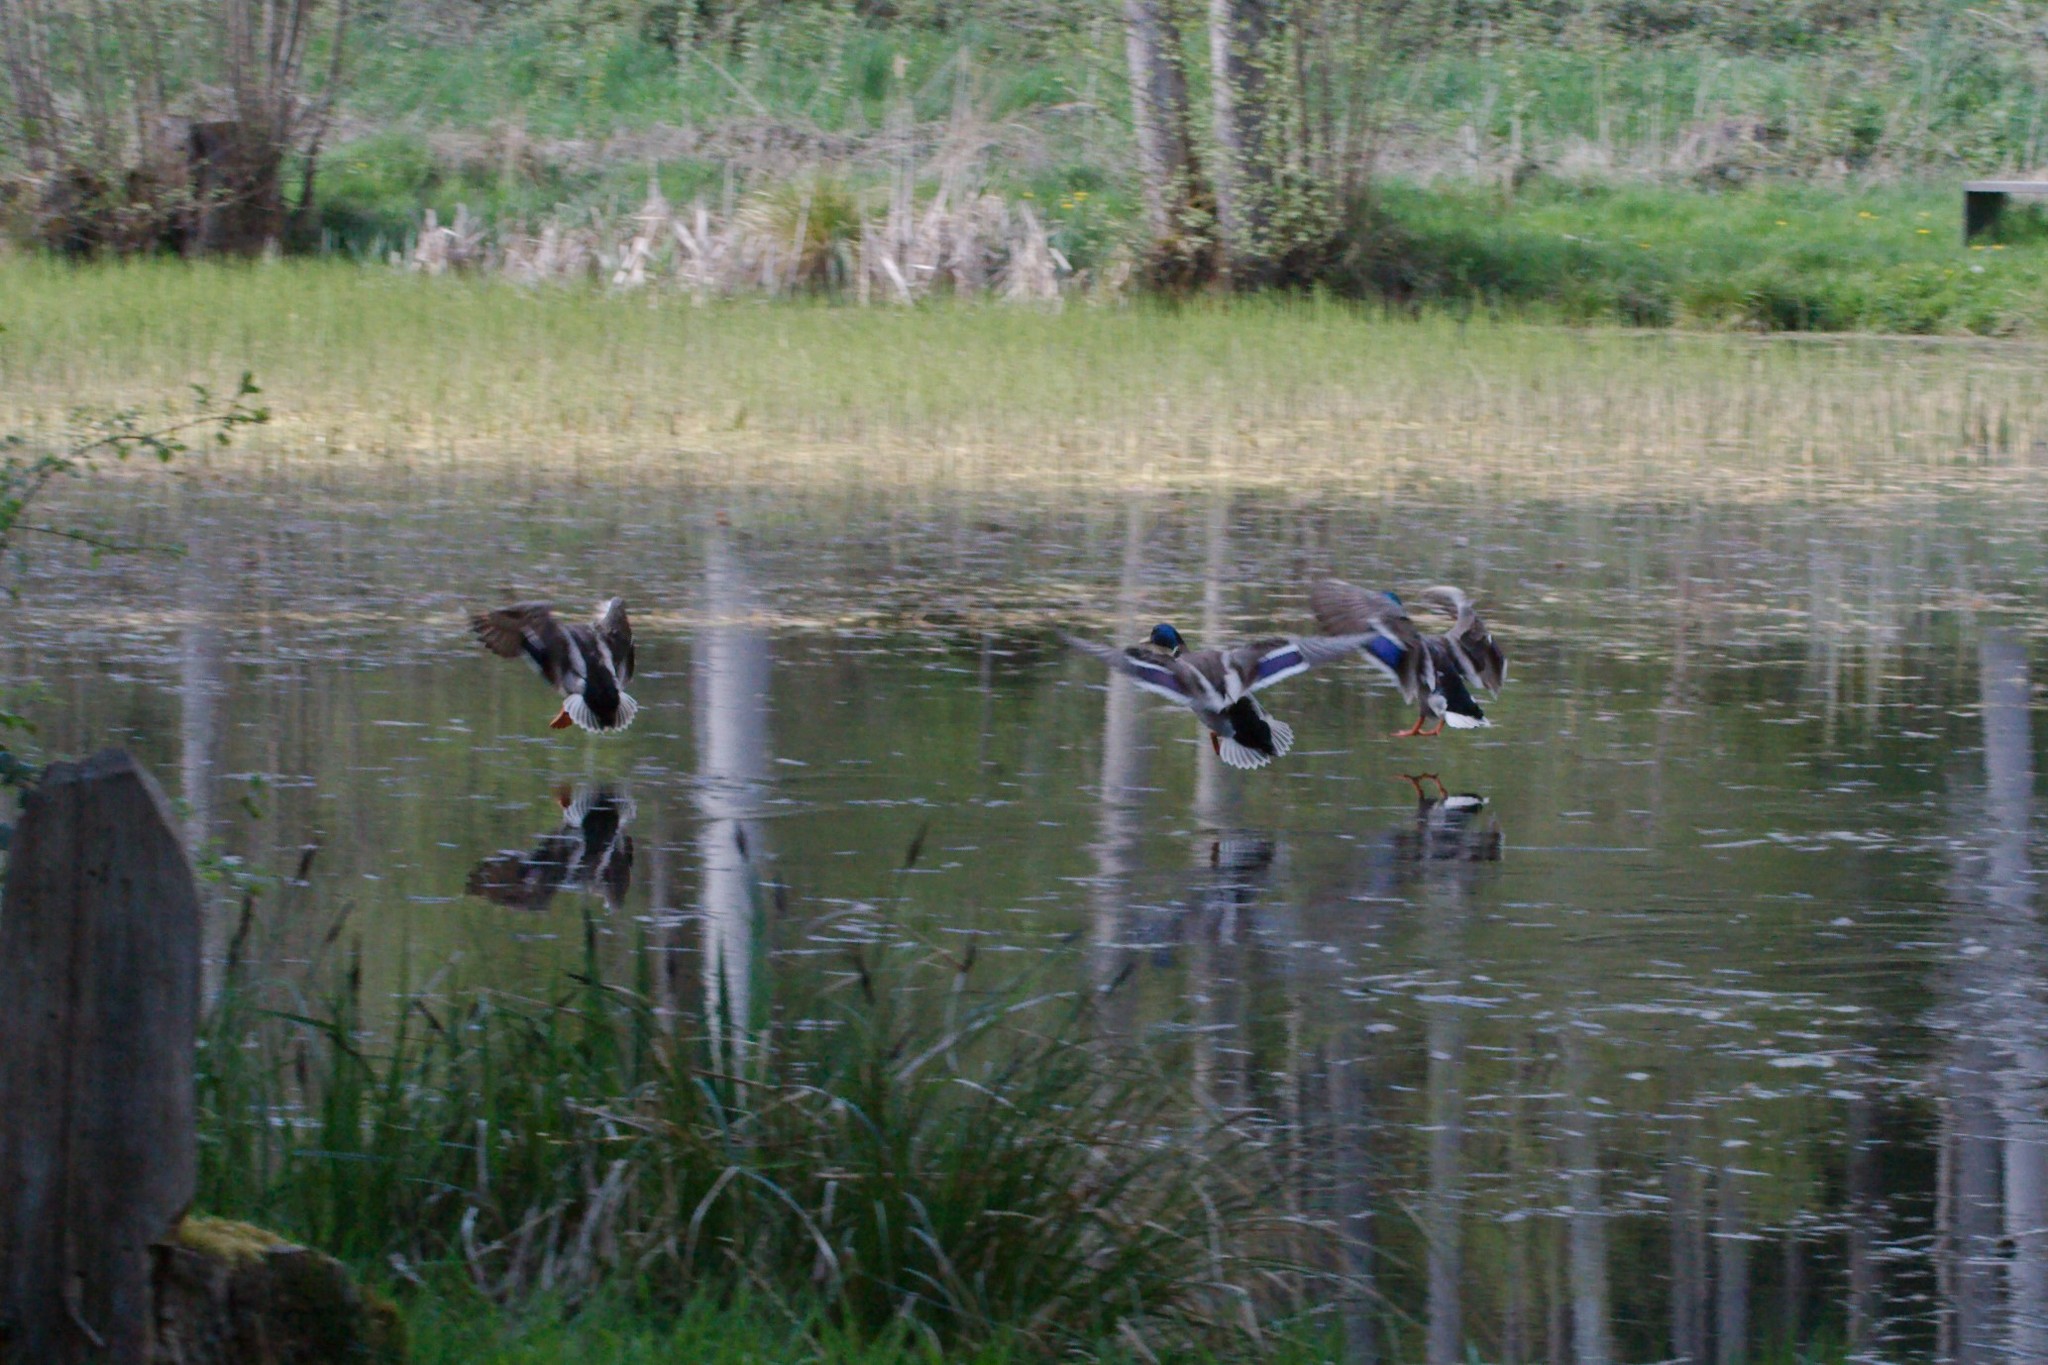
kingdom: Animalia
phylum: Chordata
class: Aves
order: Anseriformes
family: Anatidae
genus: Anas
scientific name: Anas platyrhynchos
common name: Mallard
